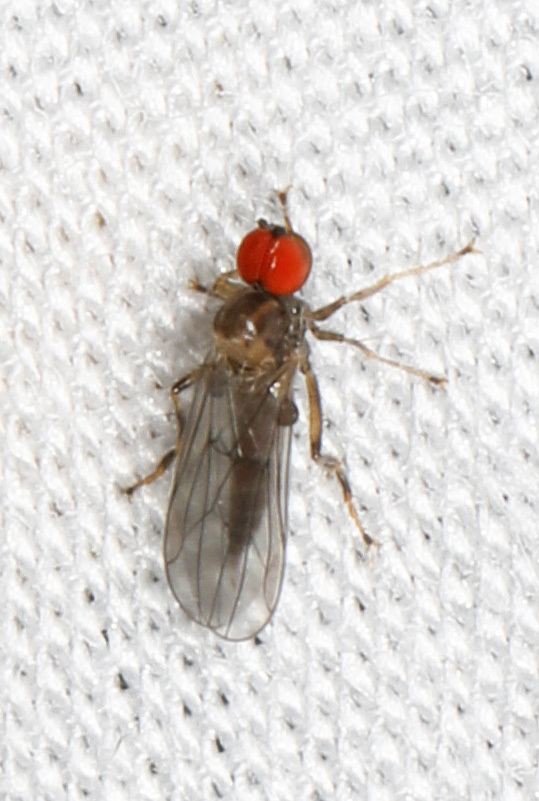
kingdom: Animalia
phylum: Arthropoda
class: Insecta
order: Diptera
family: Hybotidae
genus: Syneches
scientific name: Syneches debilis
